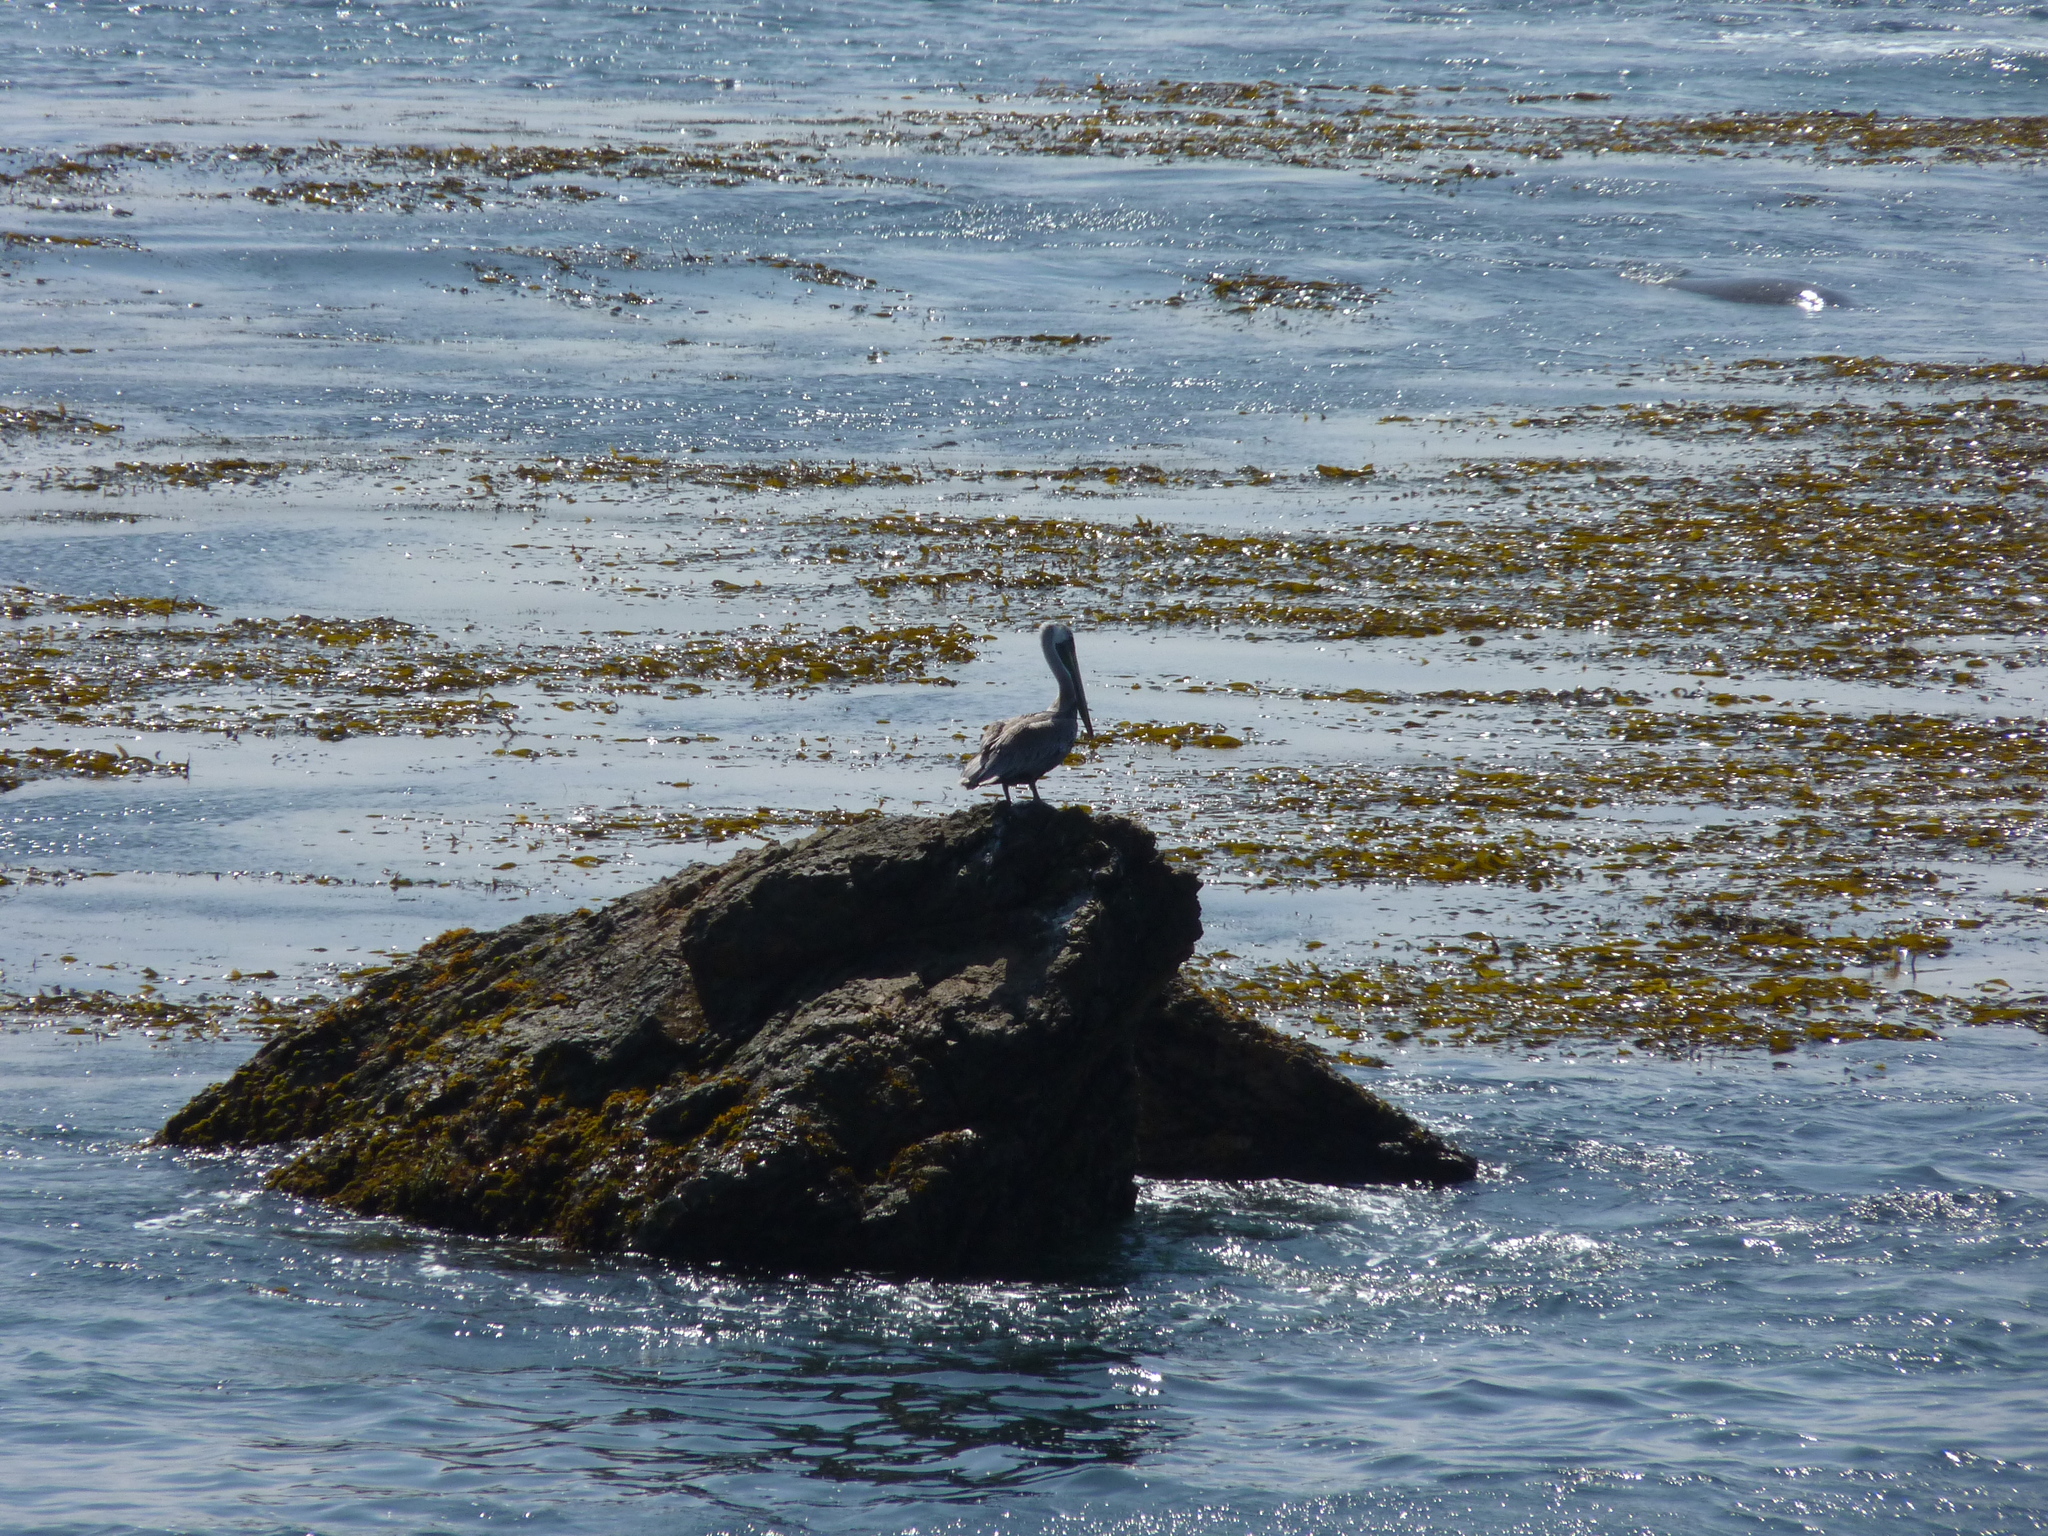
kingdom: Animalia
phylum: Chordata
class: Aves
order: Pelecaniformes
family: Pelecanidae
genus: Pelecanus
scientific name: Pelecanus occidentalis
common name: Brown pelican
